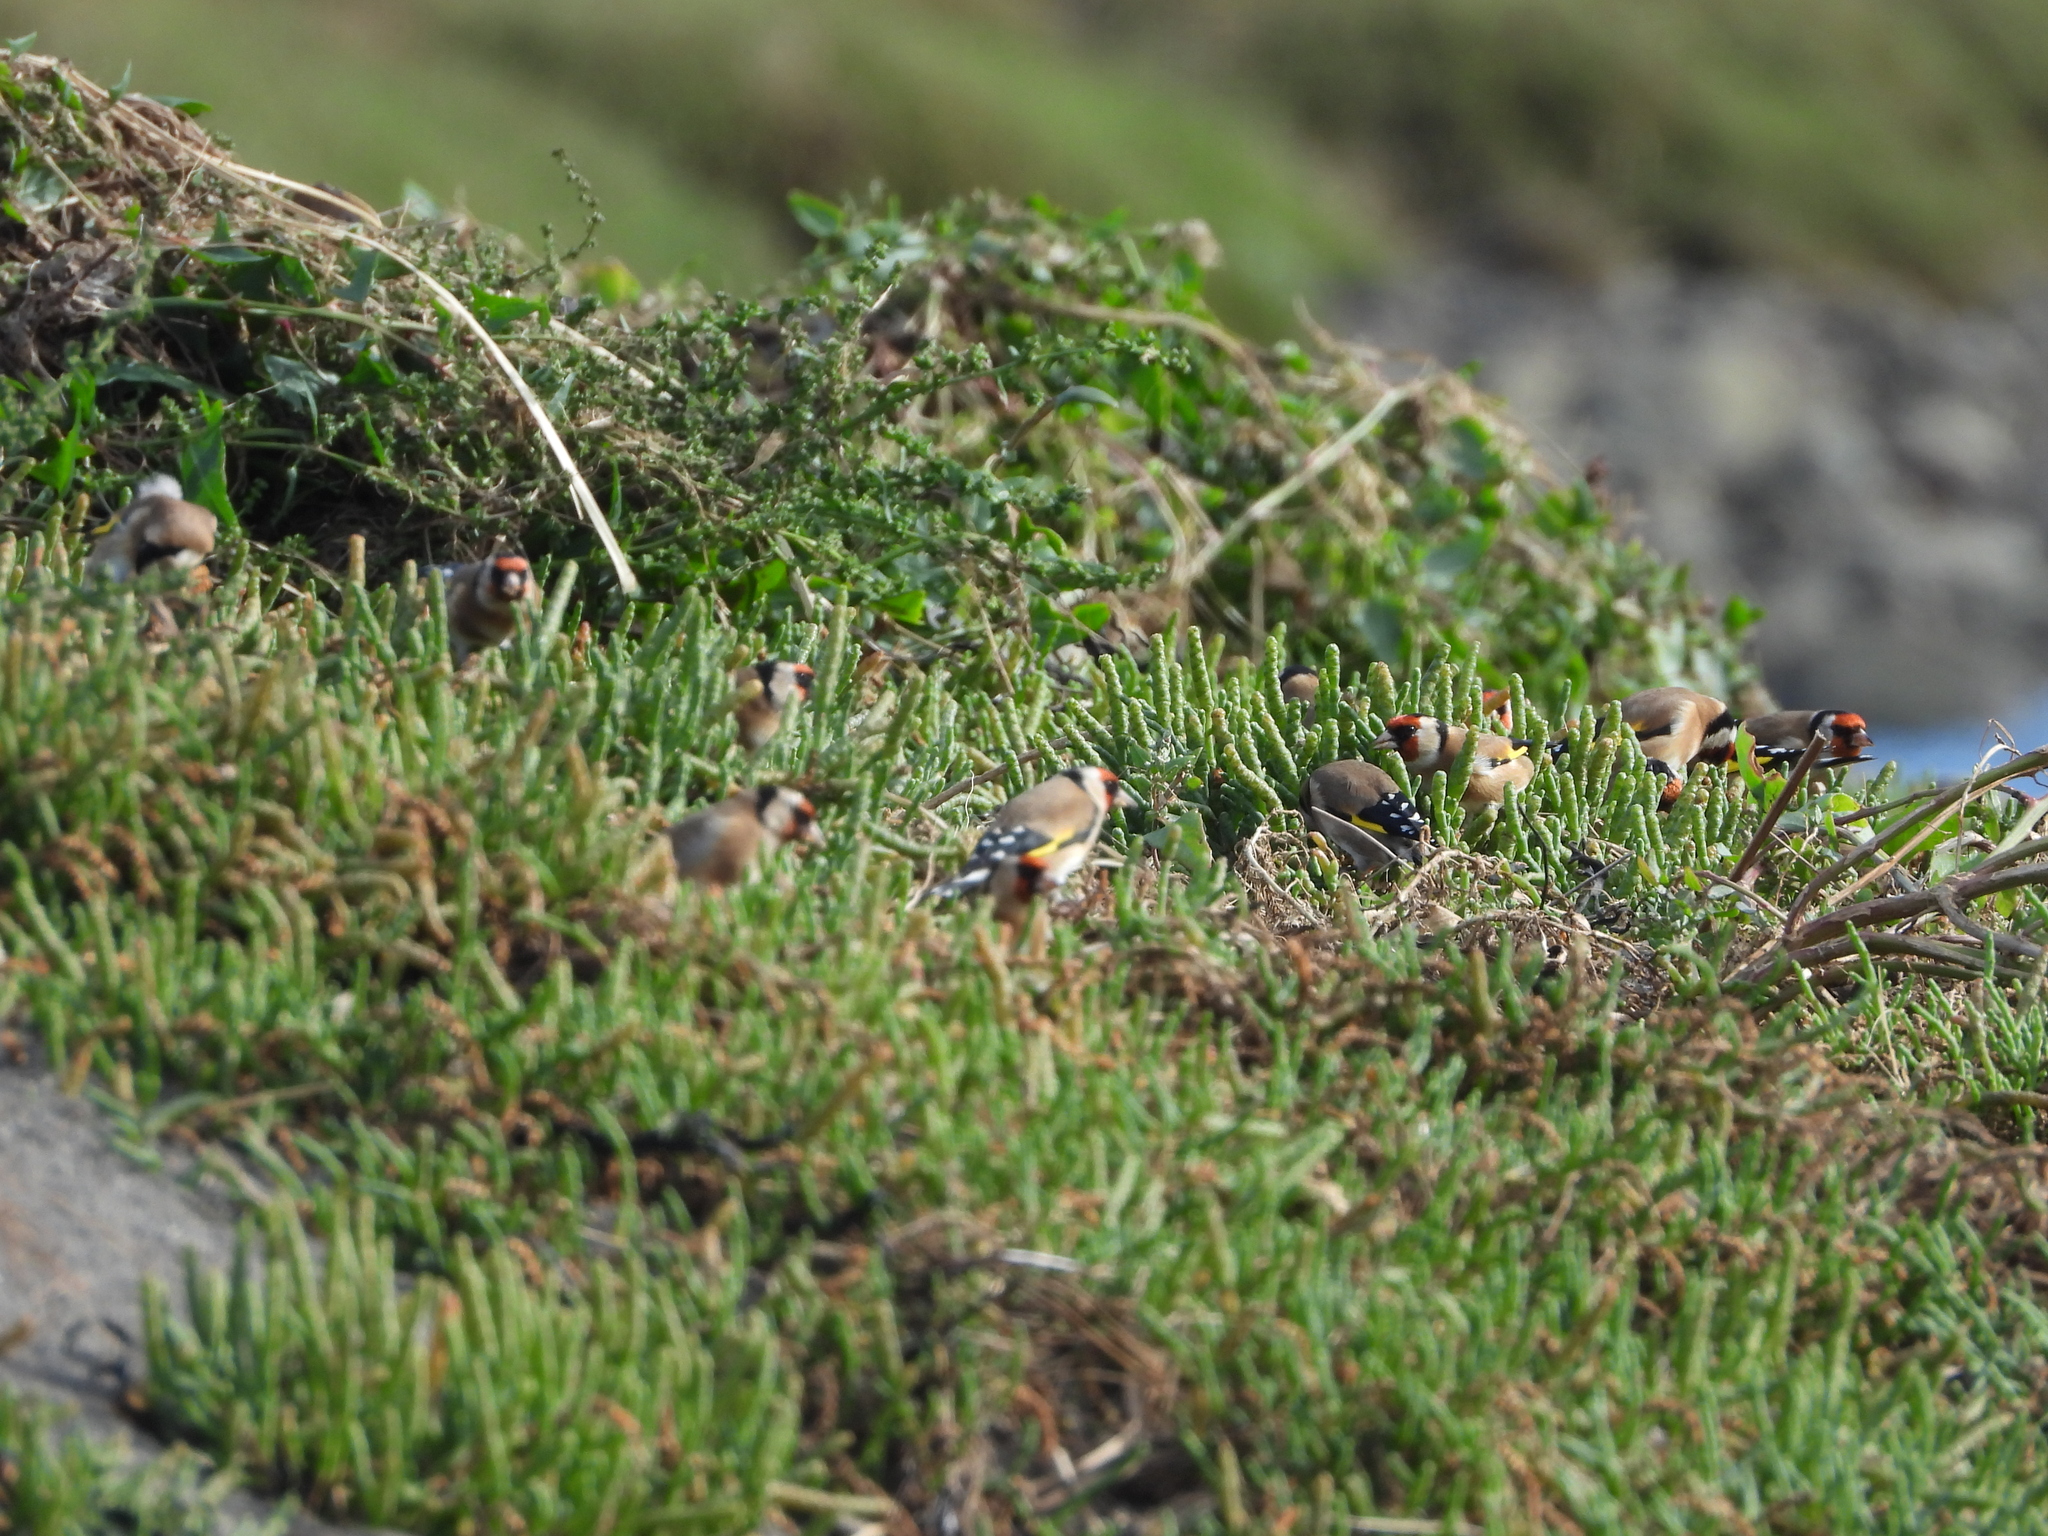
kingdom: Animalia
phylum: Chordata
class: Aves
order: Passeriformes
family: Fringillidae
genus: Carduelis
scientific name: Carduelis carduelis
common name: European goldfinch
